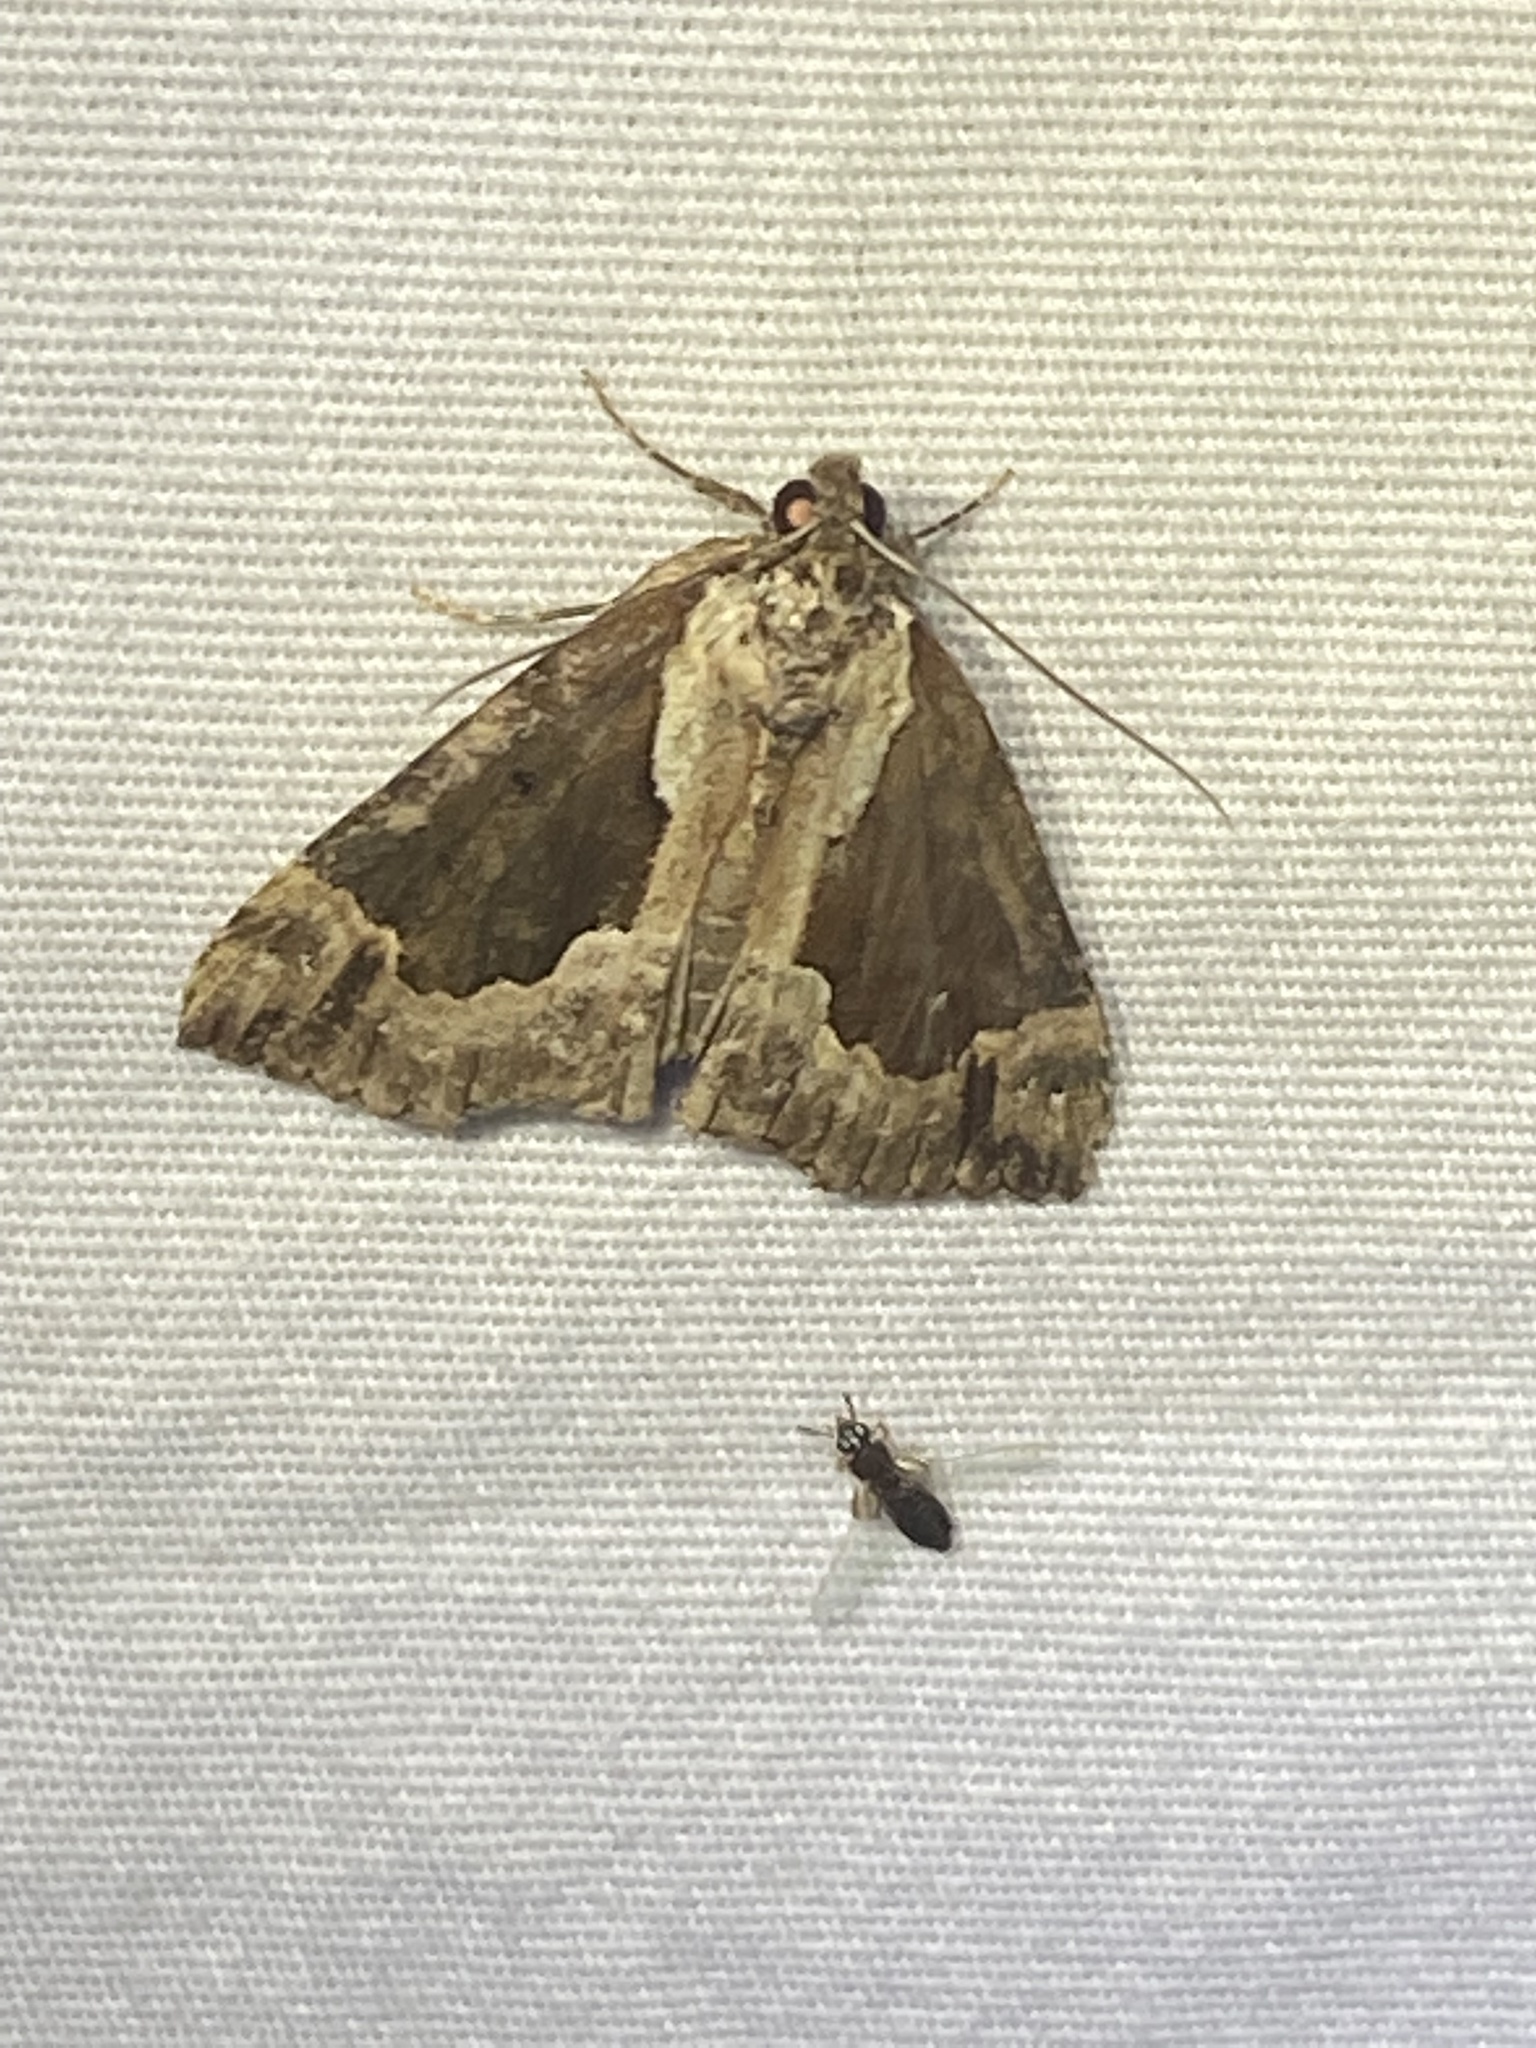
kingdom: Animalia
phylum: Arthropoda
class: Insecta
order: Lepidoptera
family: Erebidae
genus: Hypena
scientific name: Hypena baltimoralis
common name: Baltimore snout
